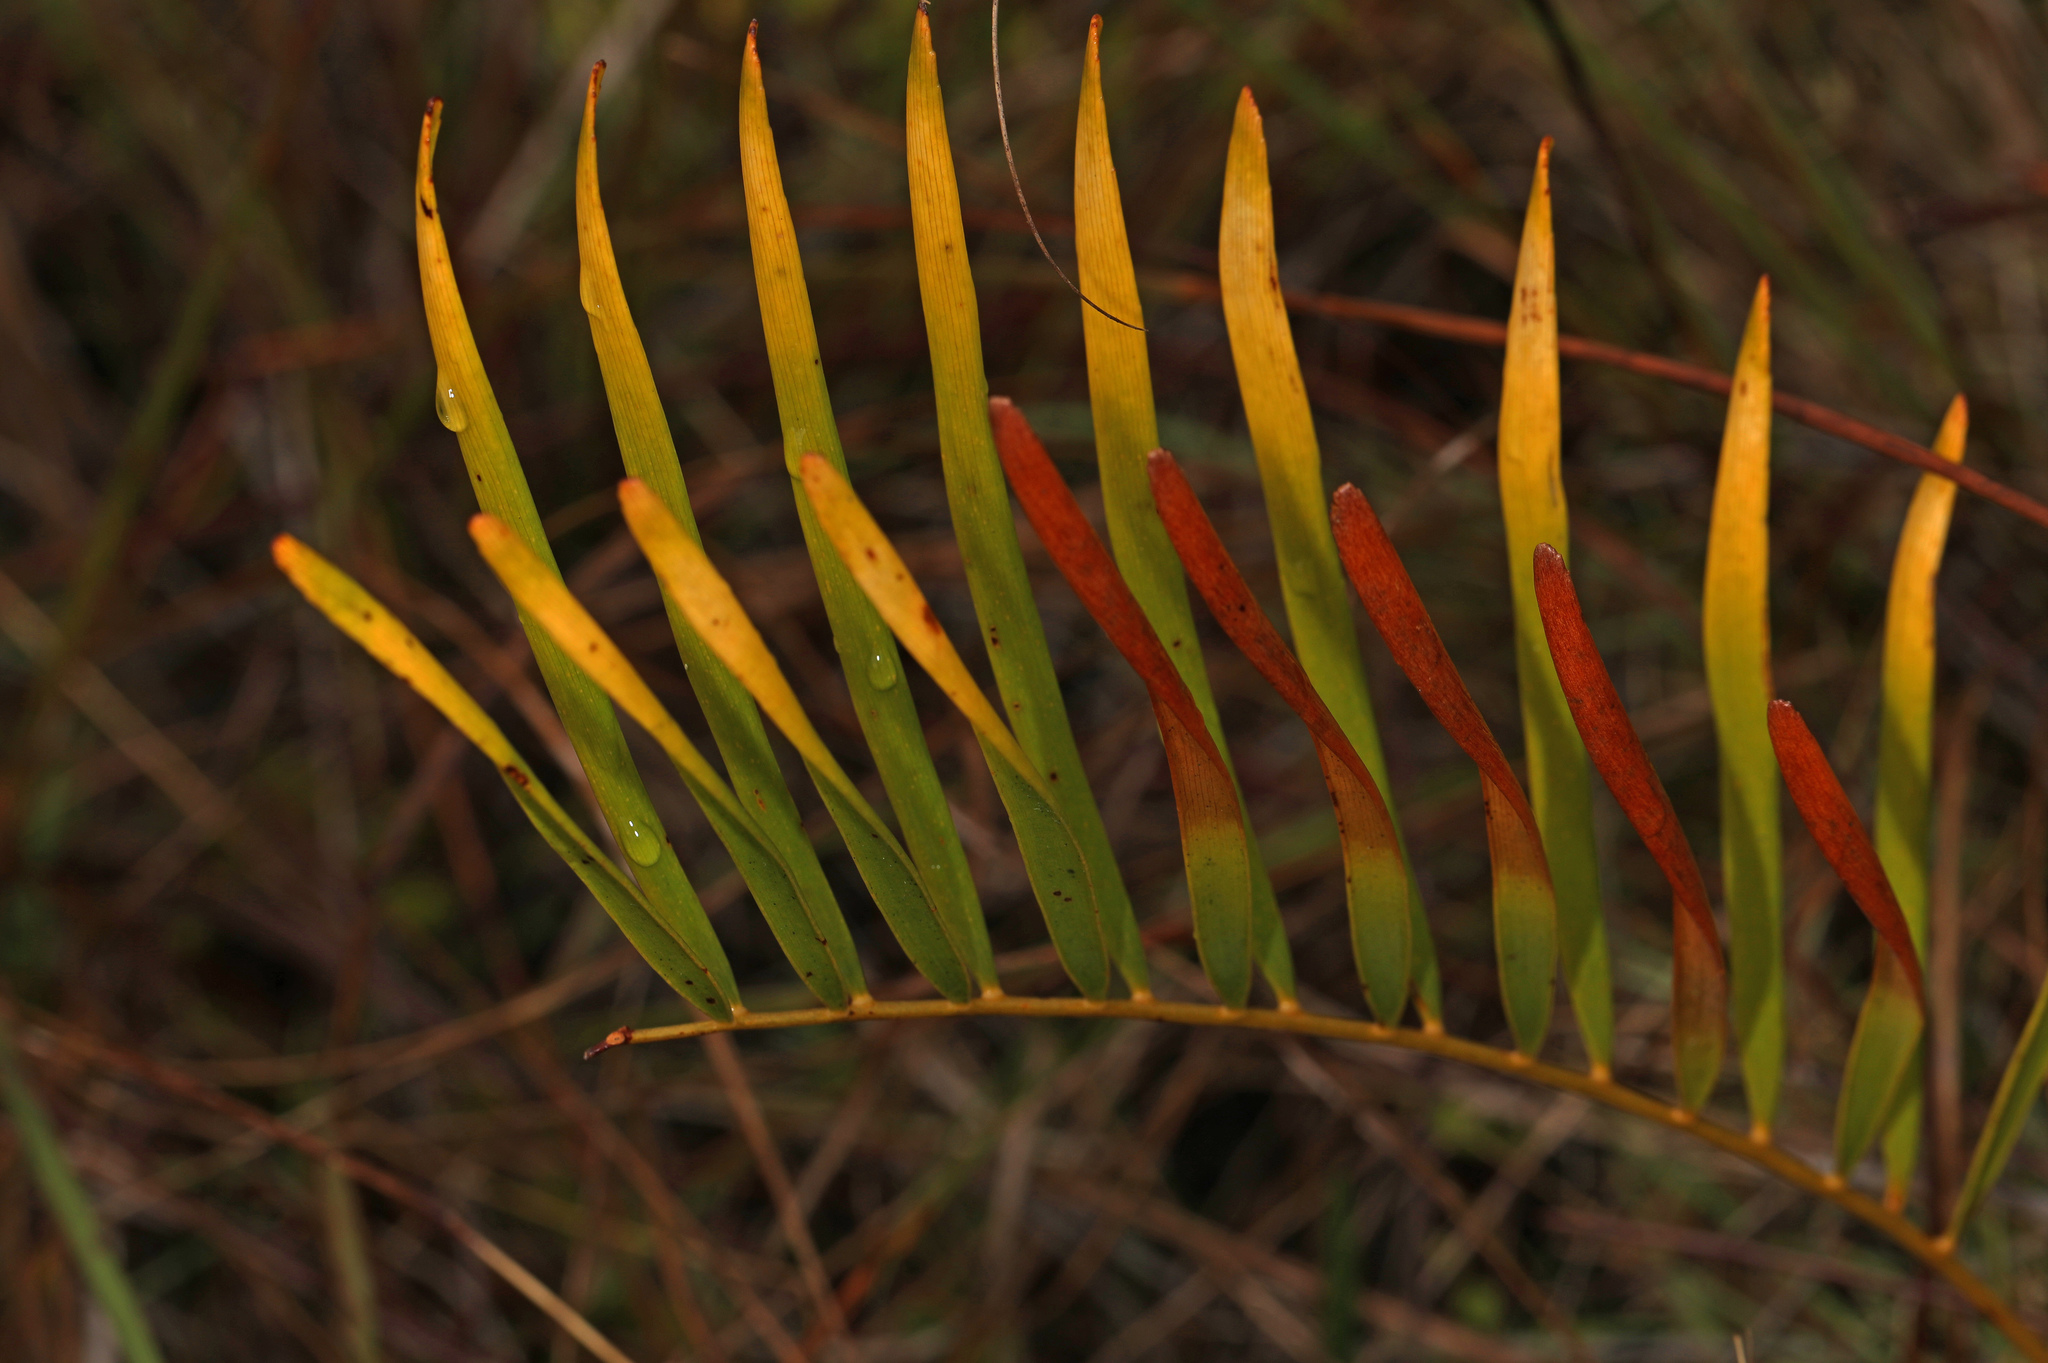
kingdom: Plantae
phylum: Tracheophyta
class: Cycadopsida
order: Cycadales
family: Zamiaceae
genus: Zamia
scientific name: Zamia integrifolia
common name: Florida arrowroot
